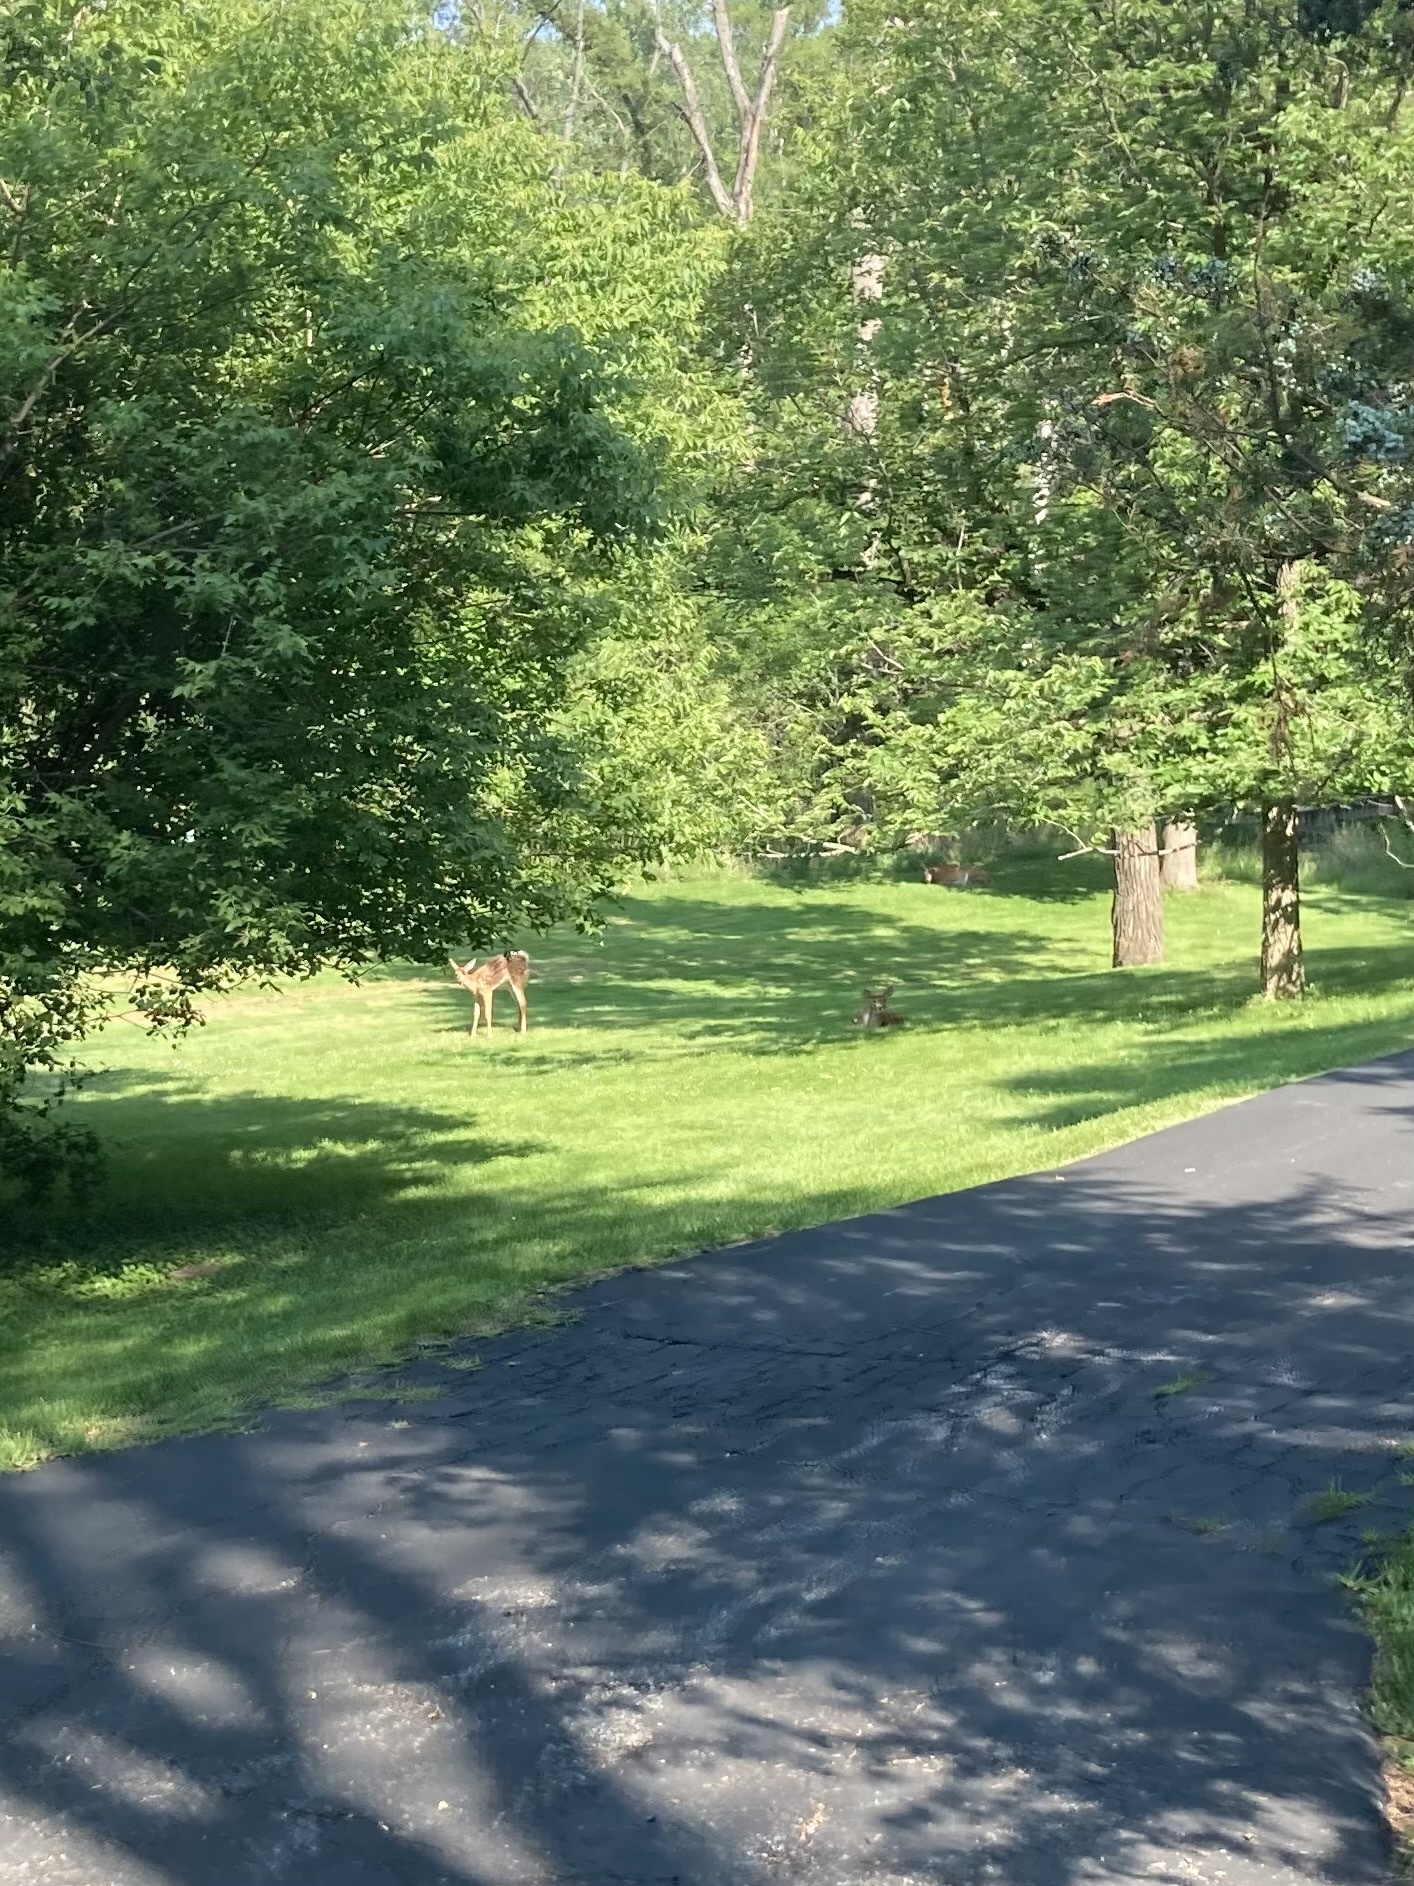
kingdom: Animalia
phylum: Chordata
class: Mammalia
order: Artiodactyla
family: Cervidae
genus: Odocoileus
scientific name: Odocoileus virginianus
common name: White-tailed deer
